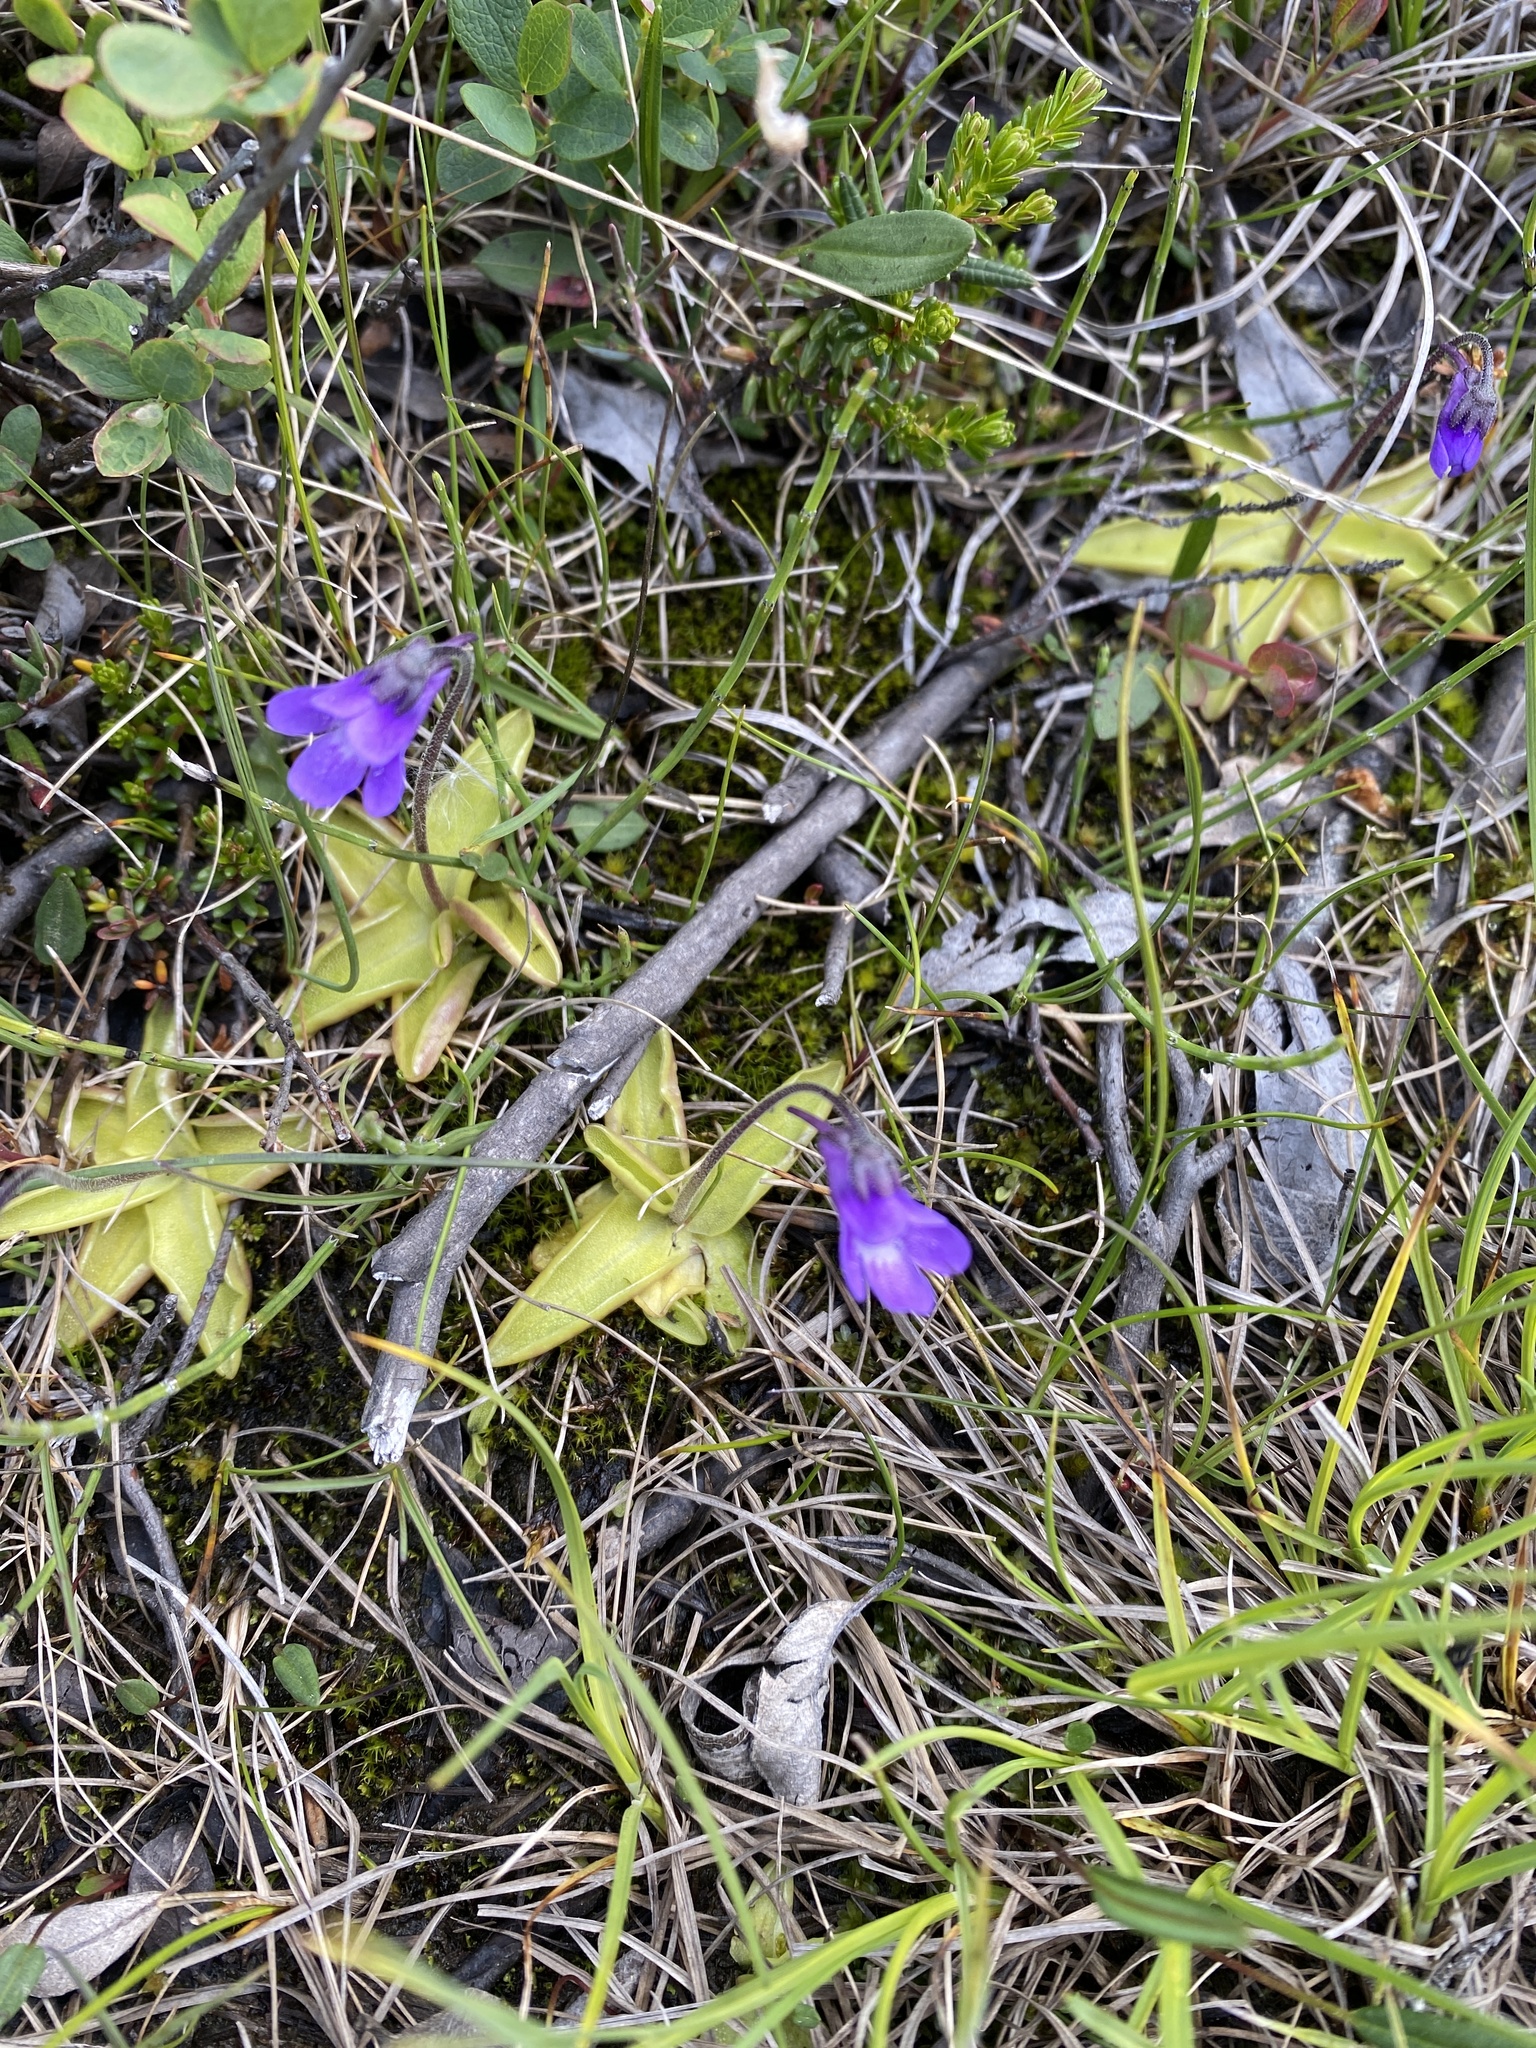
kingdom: Plantae
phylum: Tracheophyta
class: Magnoliopsida
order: Lamiales
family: Lentibulariaceae
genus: Pinguicula
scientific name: Pinguicula vulgaris
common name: Common butterwort
